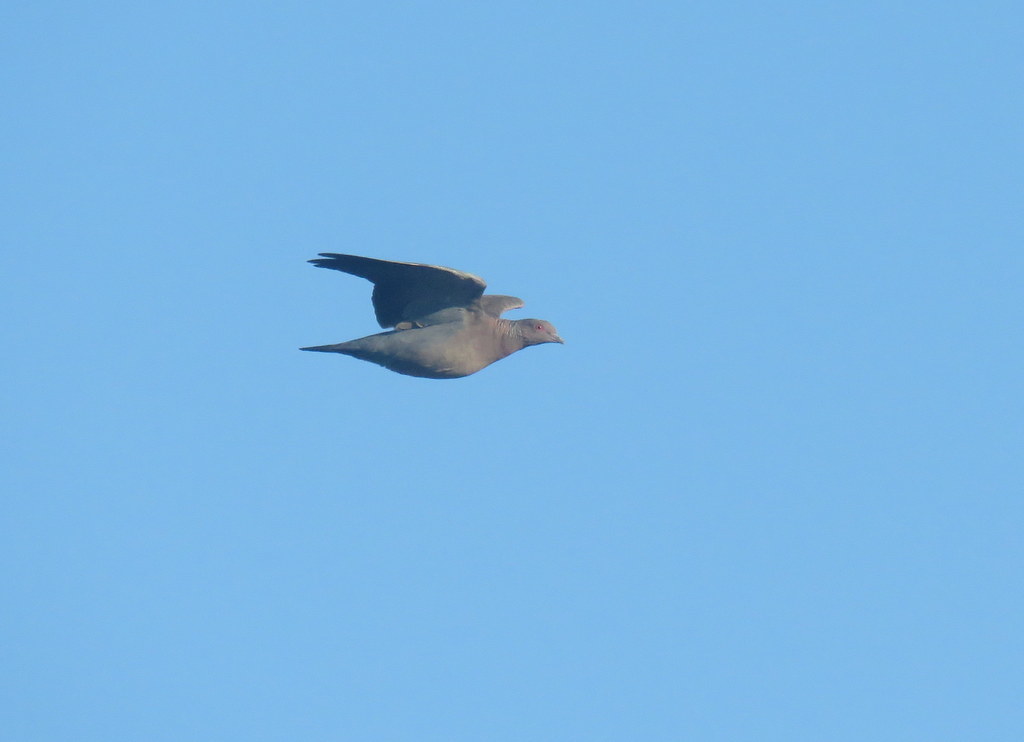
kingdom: Animalia
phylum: Chordata
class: Aves
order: Columbiformes
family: Columbidae
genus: Patagioenas
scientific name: Patagioenas picazuro
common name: Picazuro pigeon
